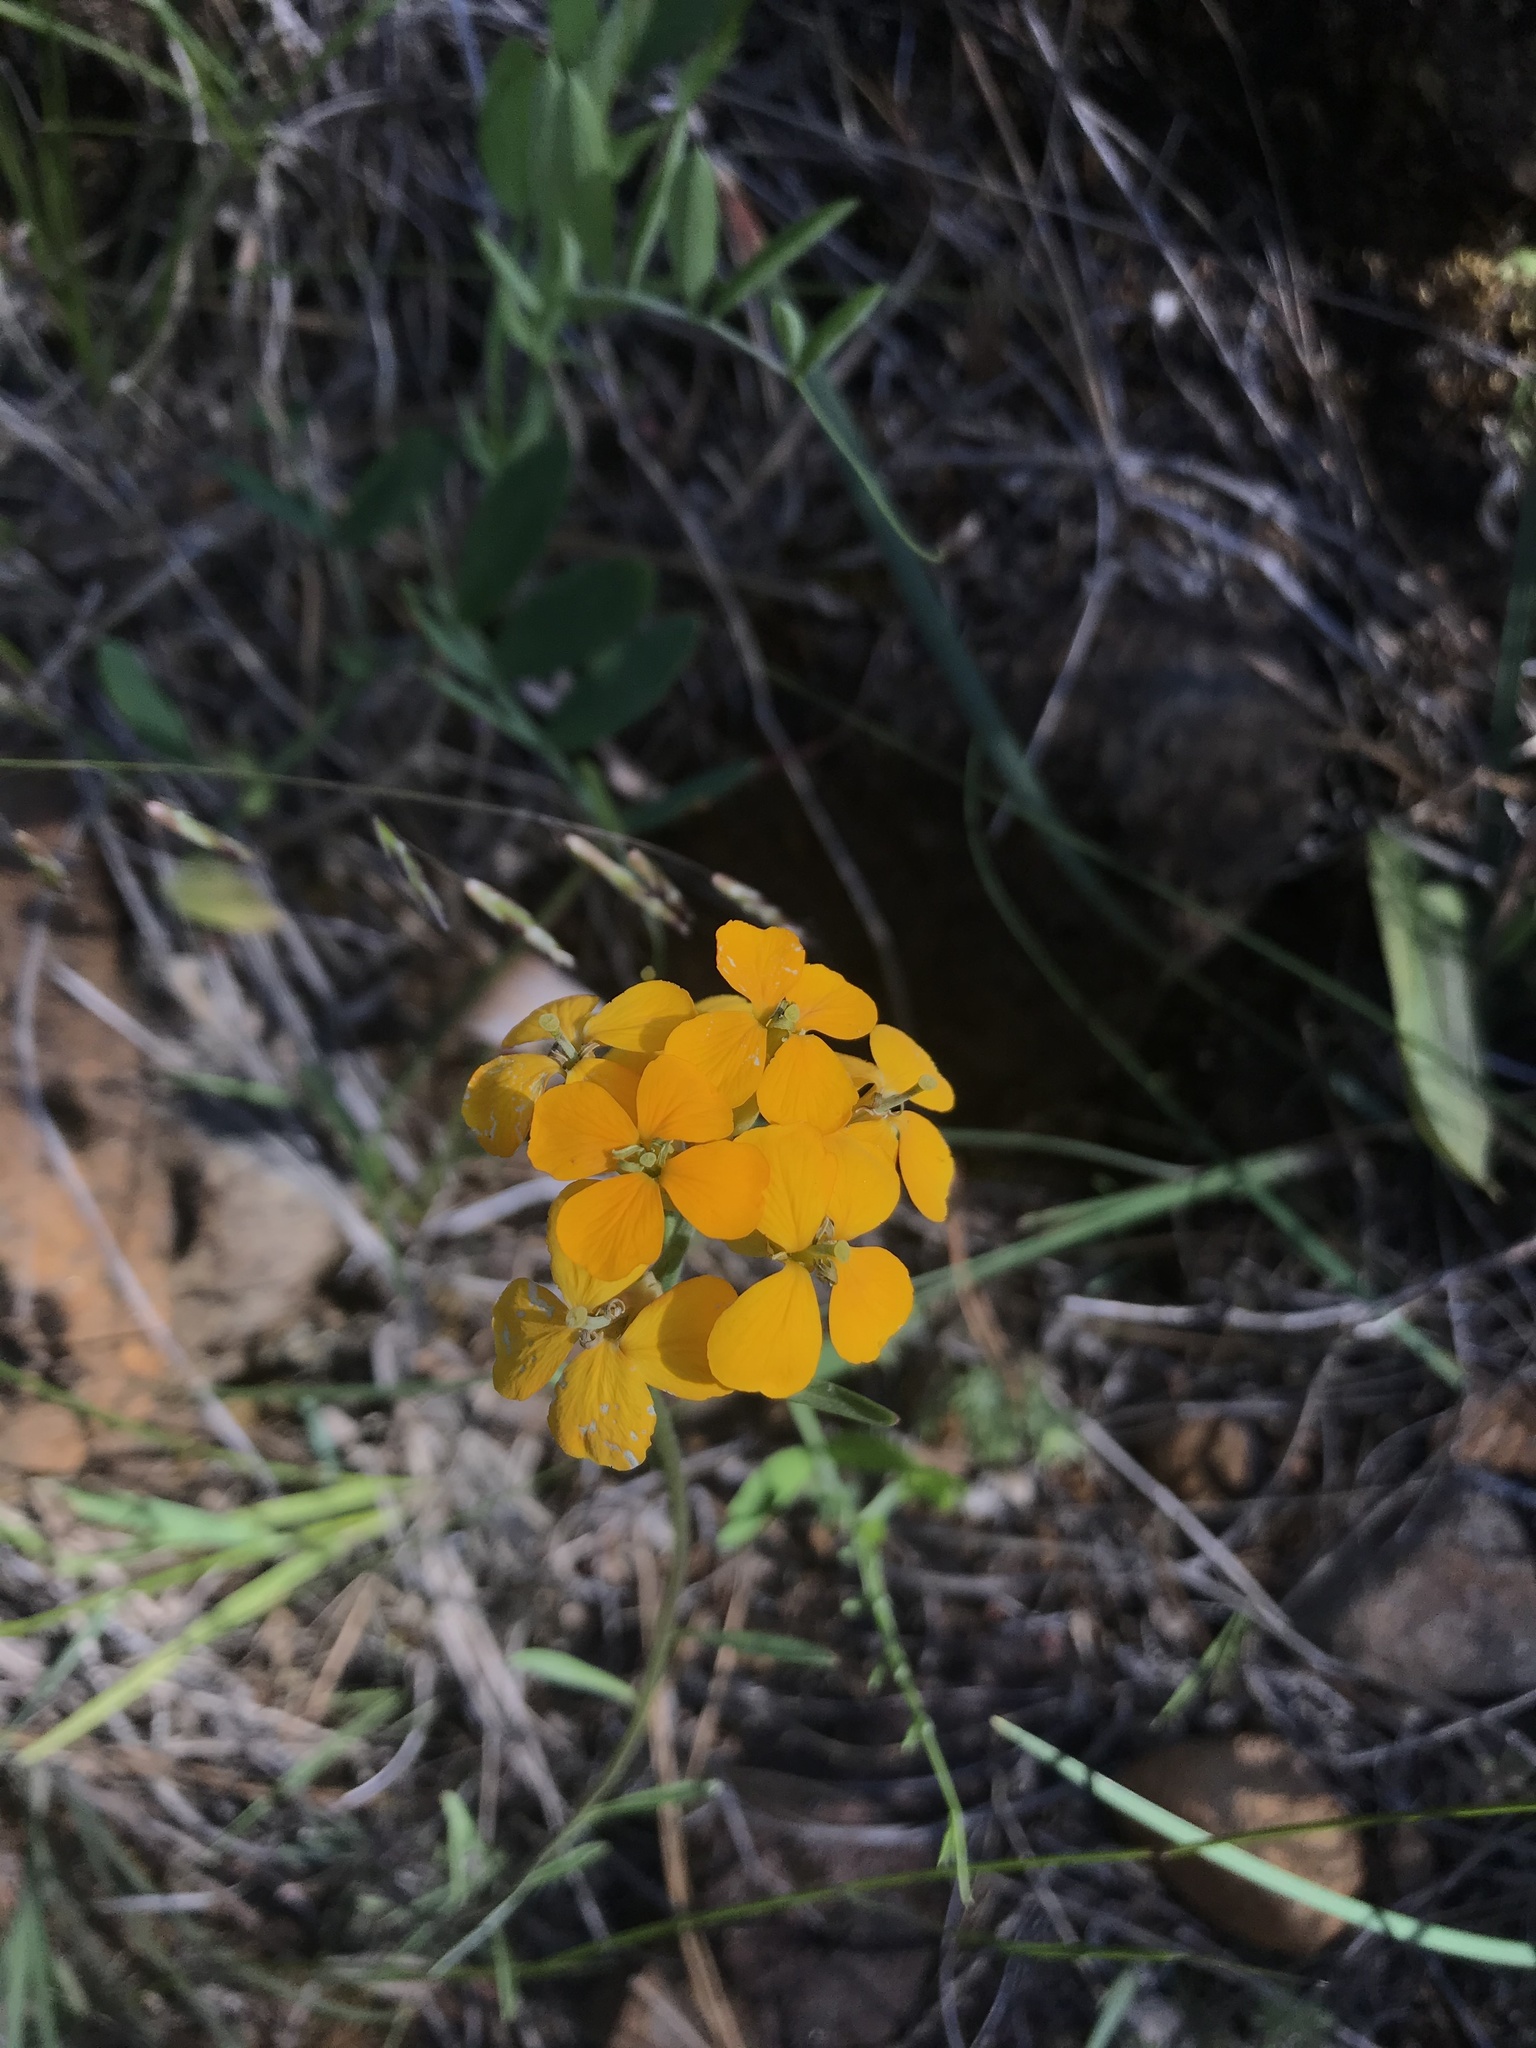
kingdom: Plantae
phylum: Tracheophyta
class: Magnoliopsida
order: Brassicales
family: Brassicaceae
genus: Erysimum
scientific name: Erysimum capitatum
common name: Western wallflower
